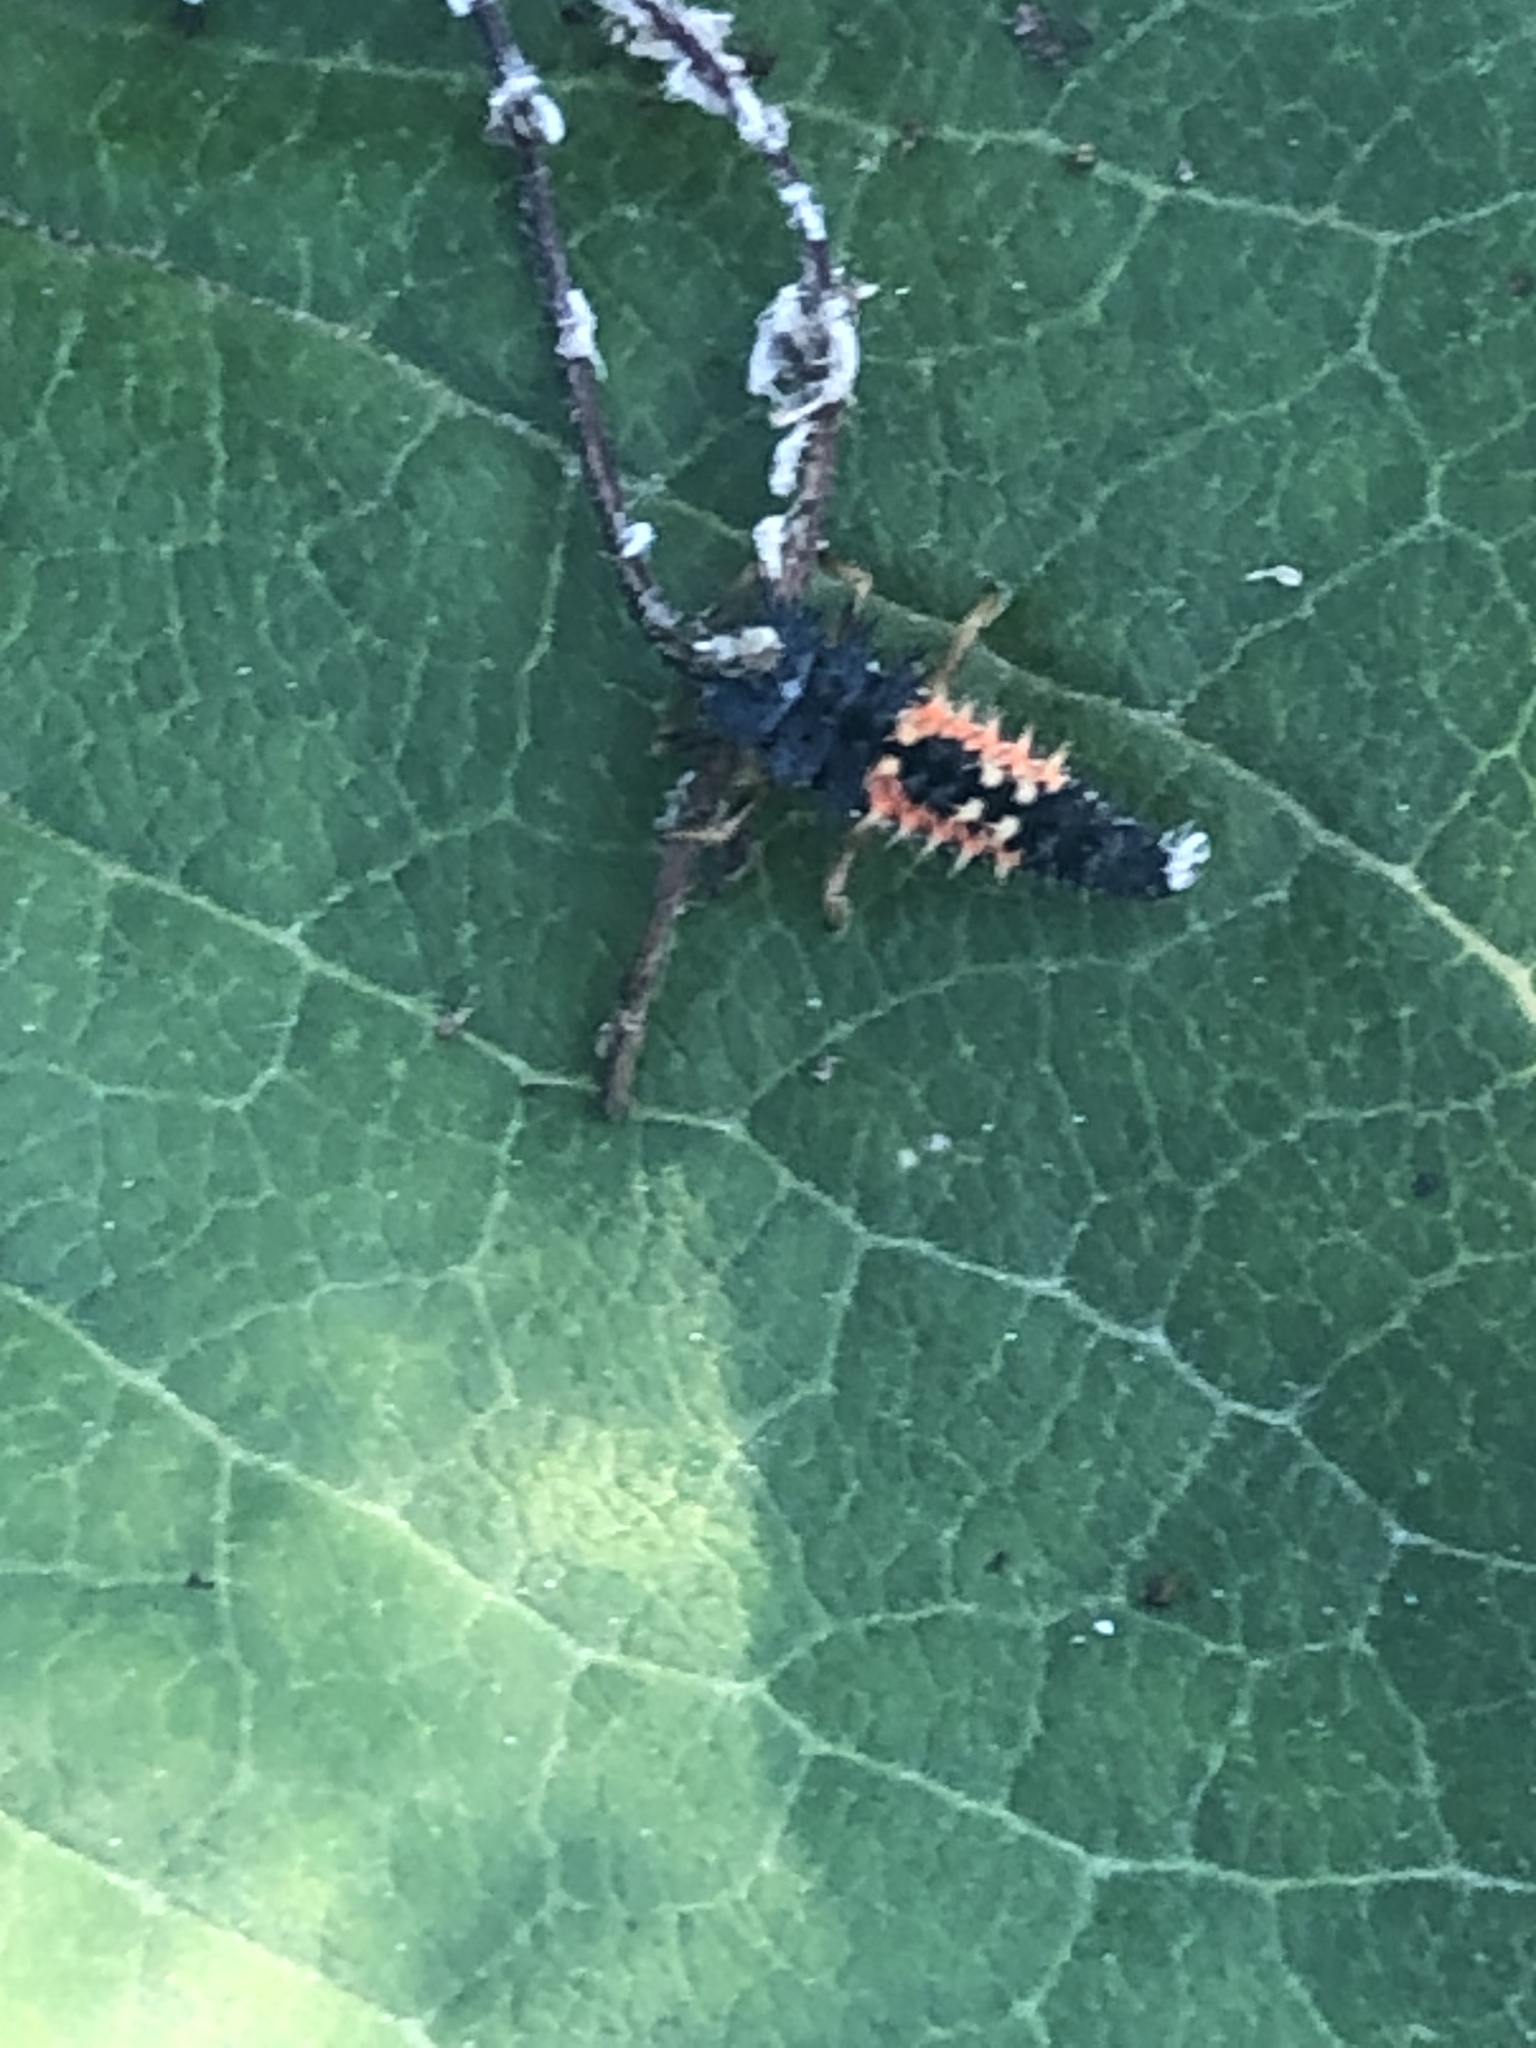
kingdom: Animalia
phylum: Arthropoda
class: Insecta
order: Coleoptera
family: Coccinellidae
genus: Harmonia
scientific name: Harmonia axyridis
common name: Harlequin ladybird
